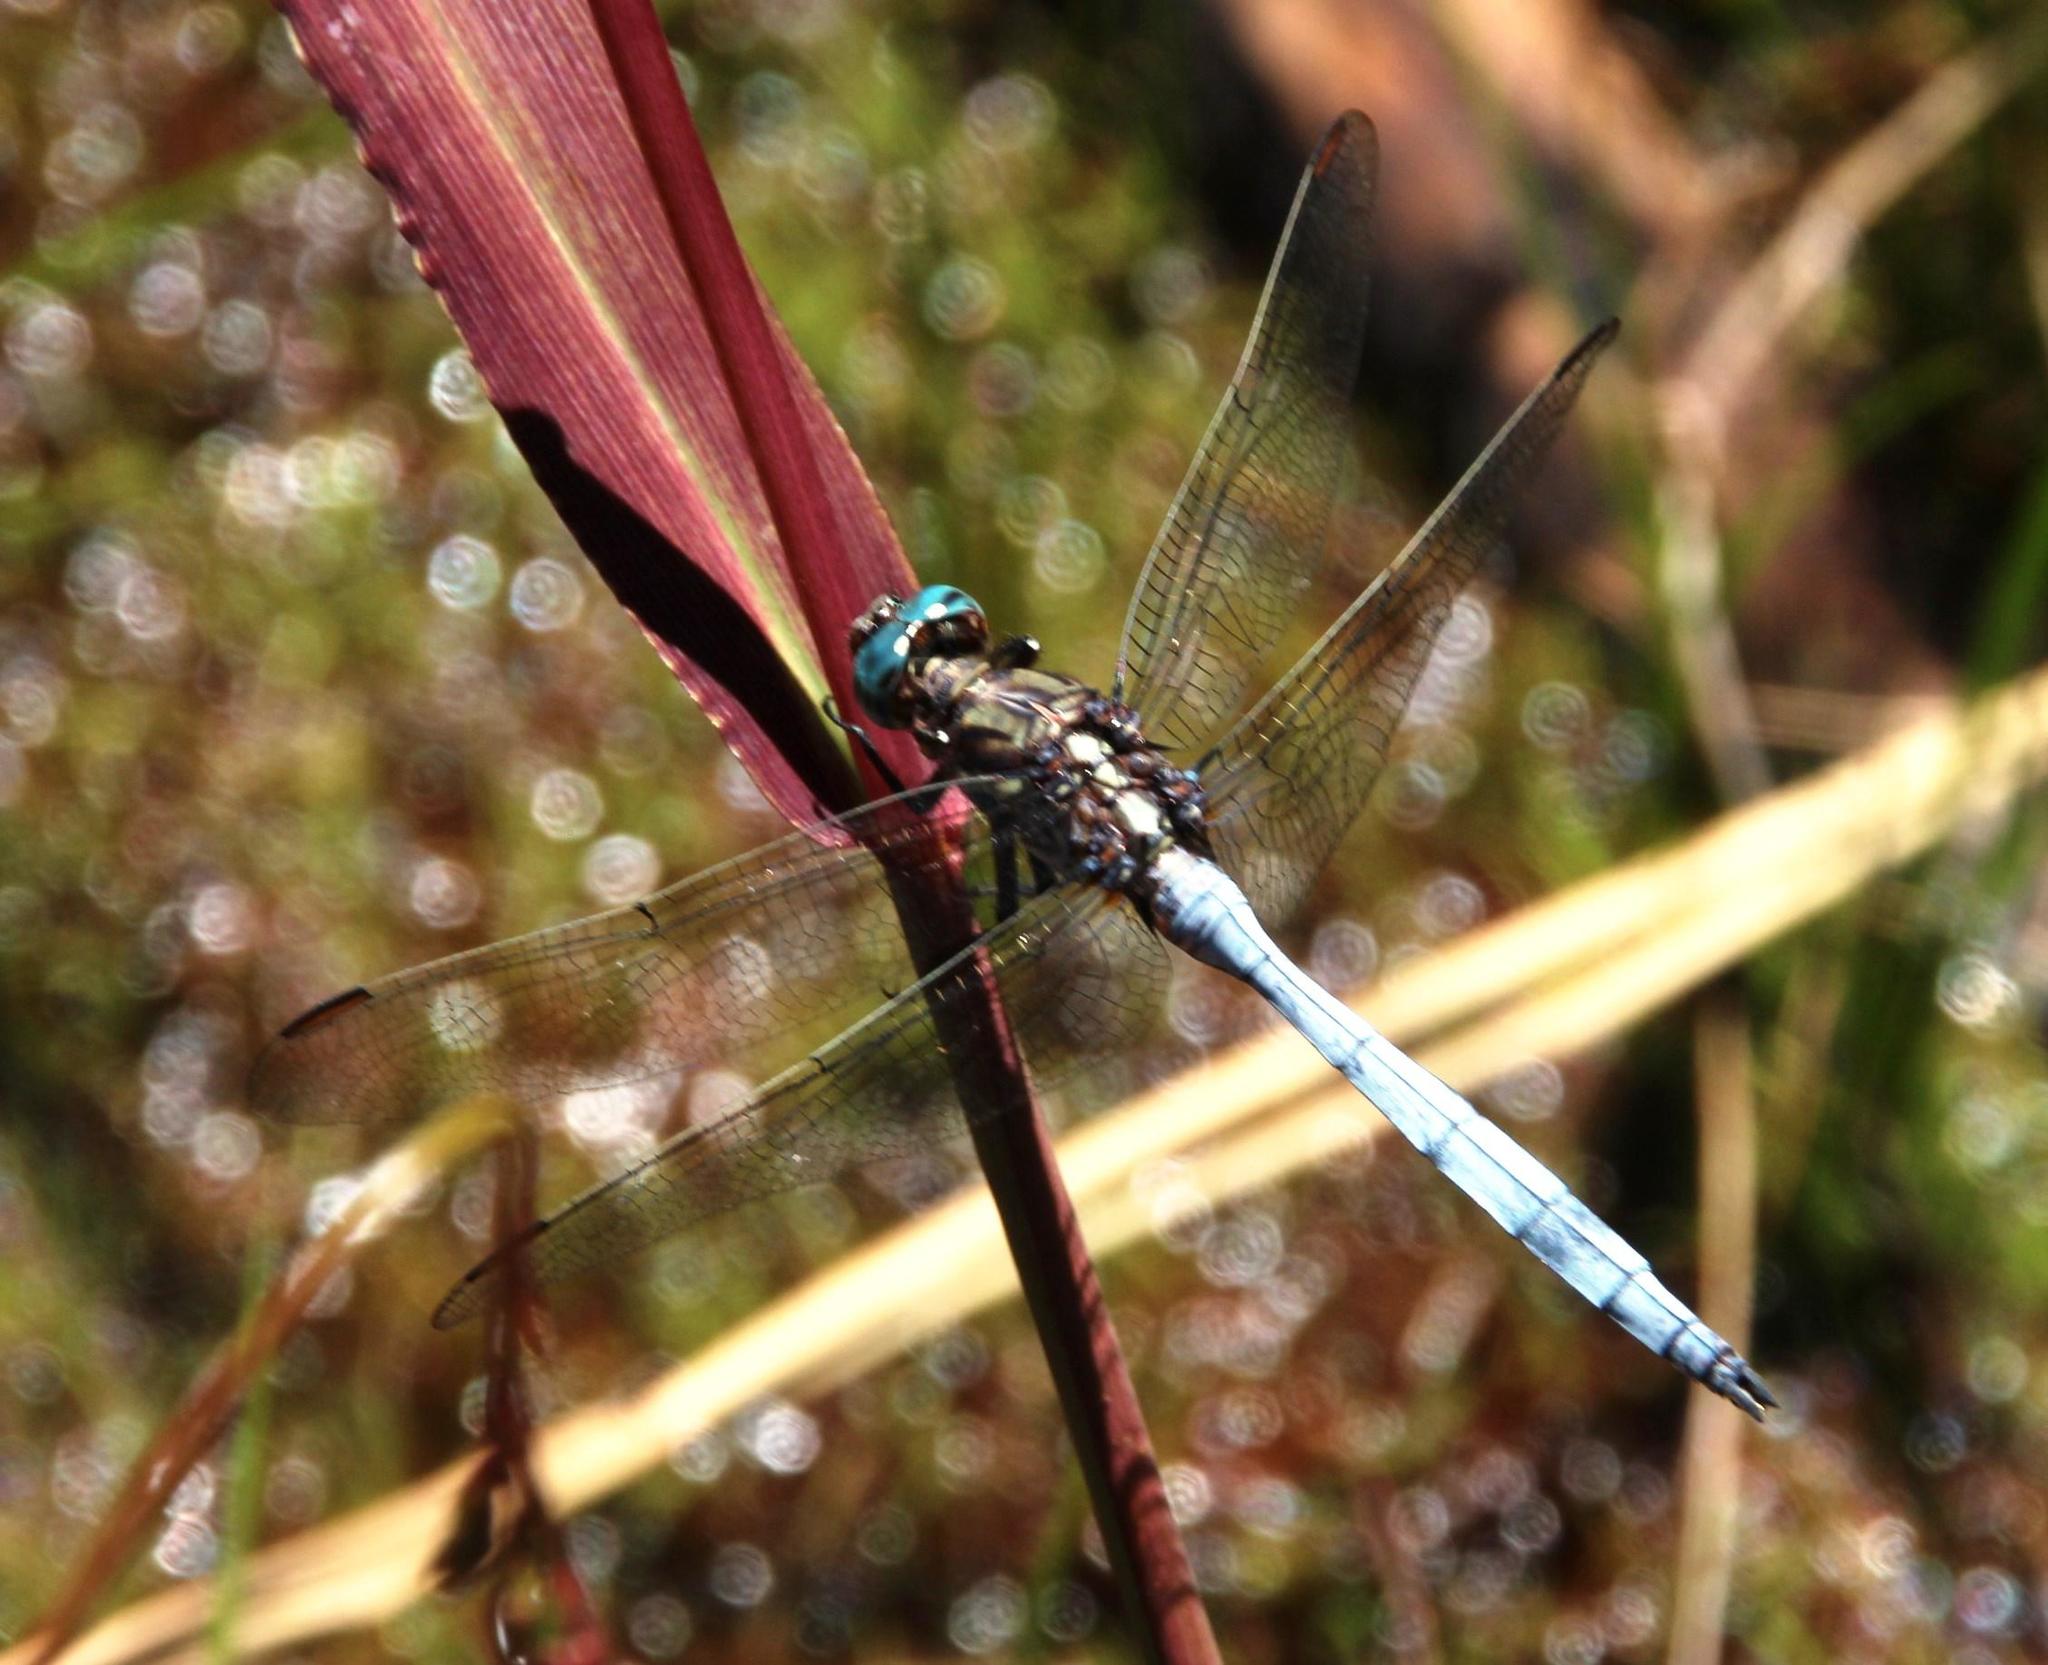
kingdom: Animalia
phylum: Arthropoda
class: Insecta
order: Odonata
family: Libellulidae
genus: Orthetrum
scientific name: Orthetrum caffrum
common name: Two-striped skimmer
